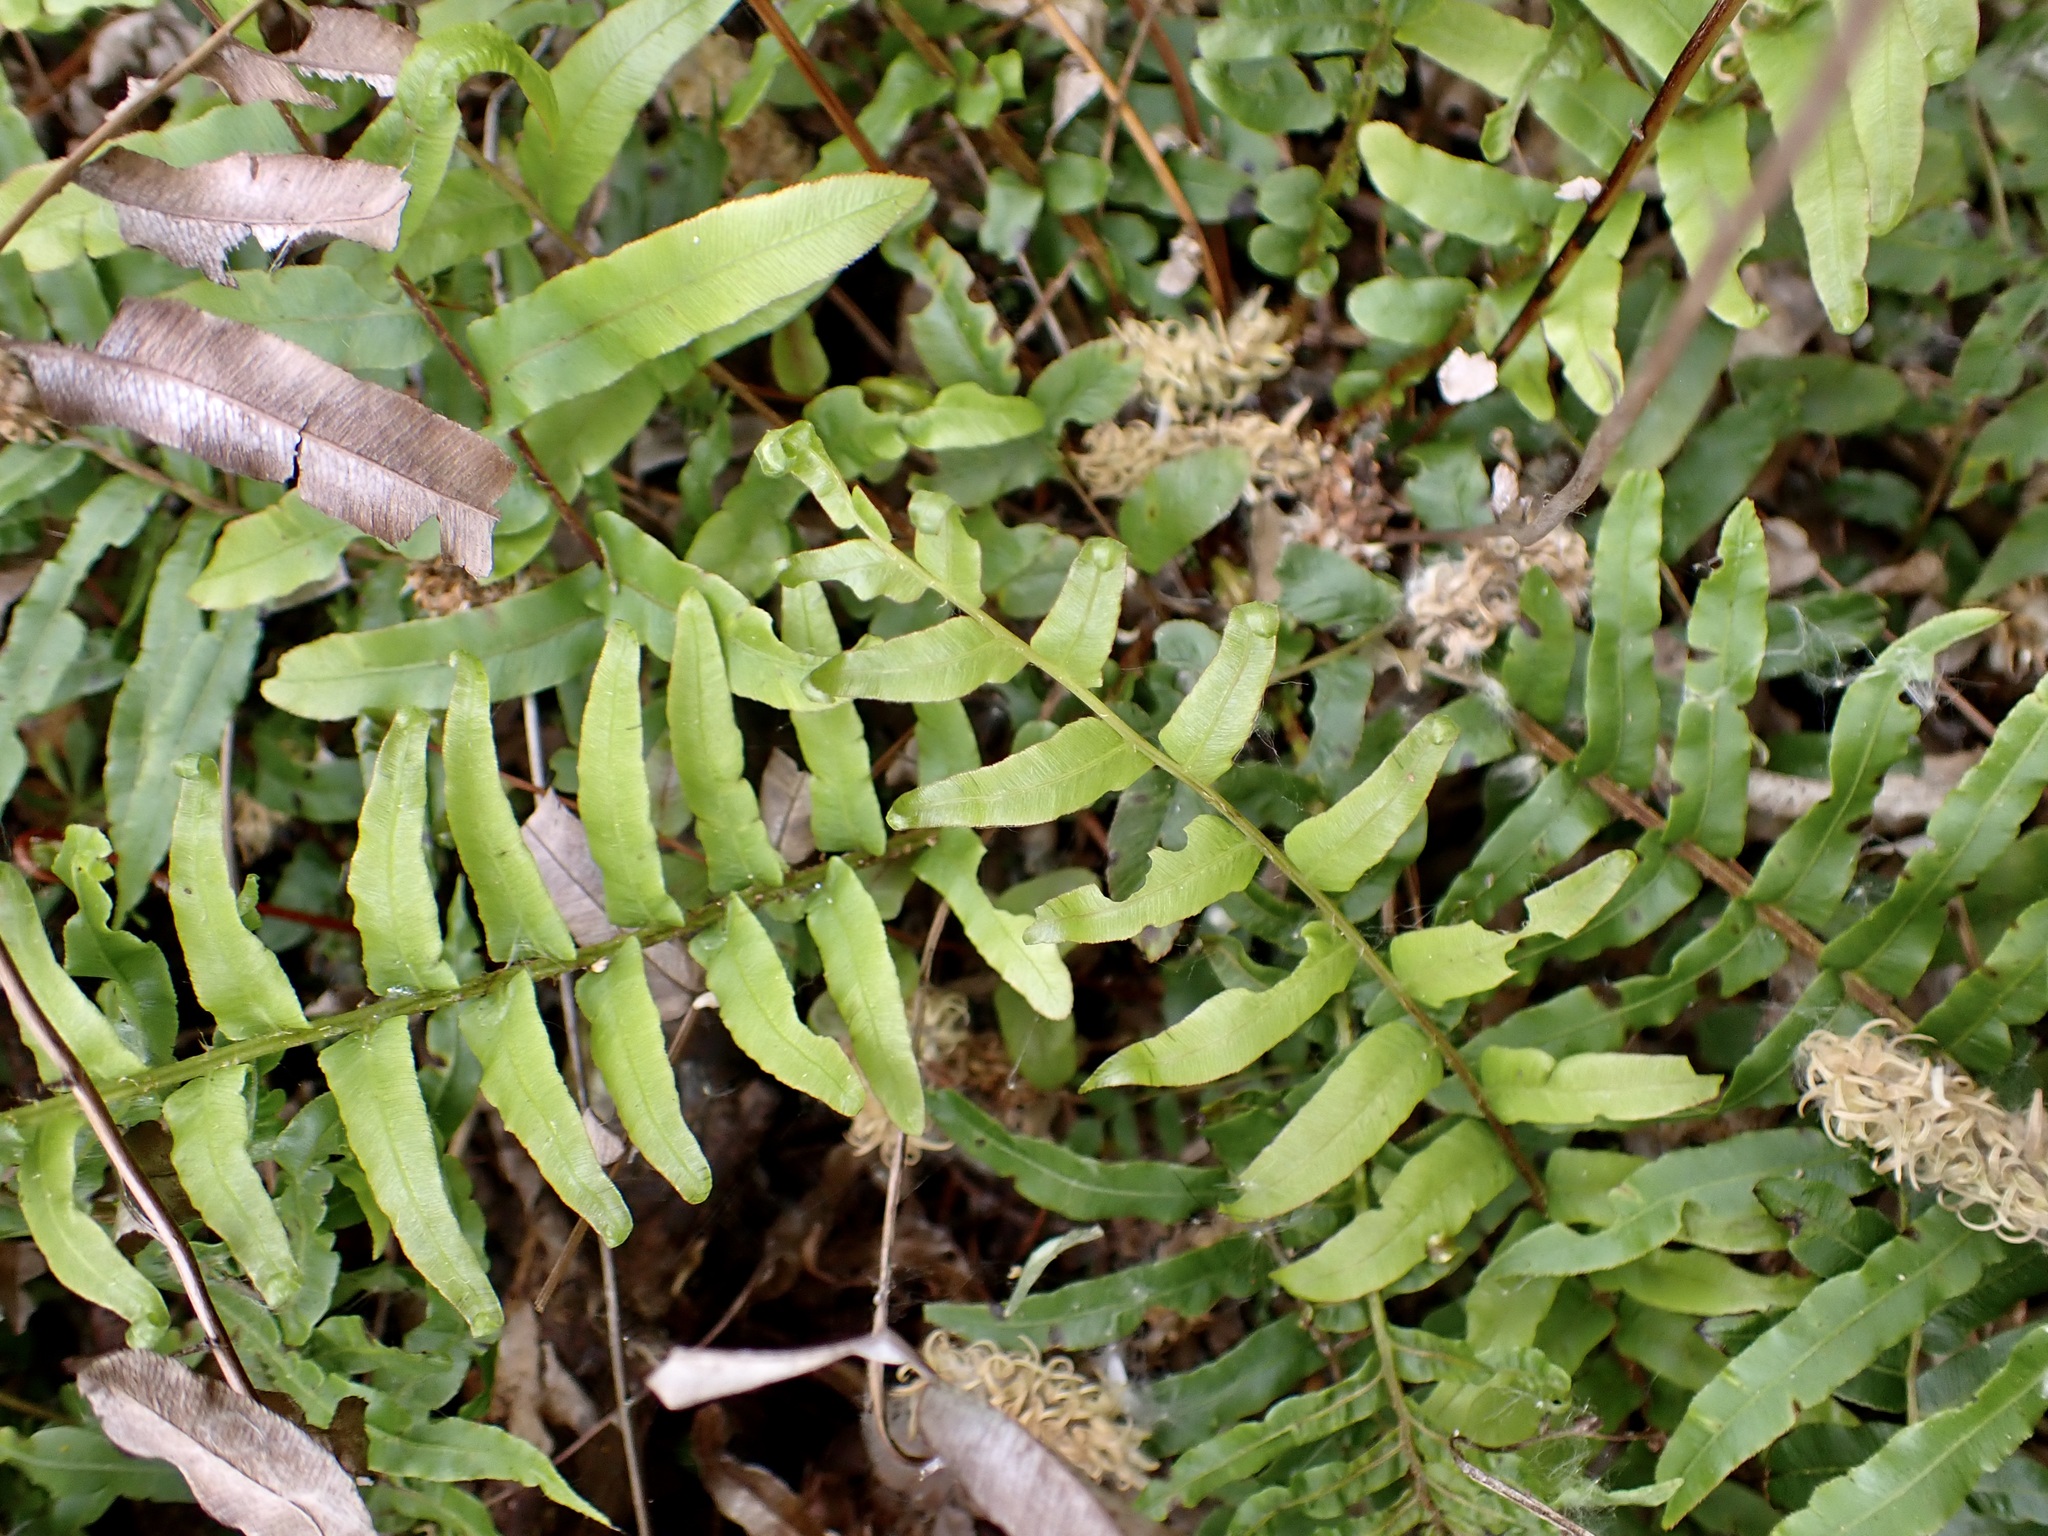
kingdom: Plantae
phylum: Tracheophyta
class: Polypodiopsida
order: Polypodiales
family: Blechnaceae
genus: Parablechnum
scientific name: Parablechnum minus
